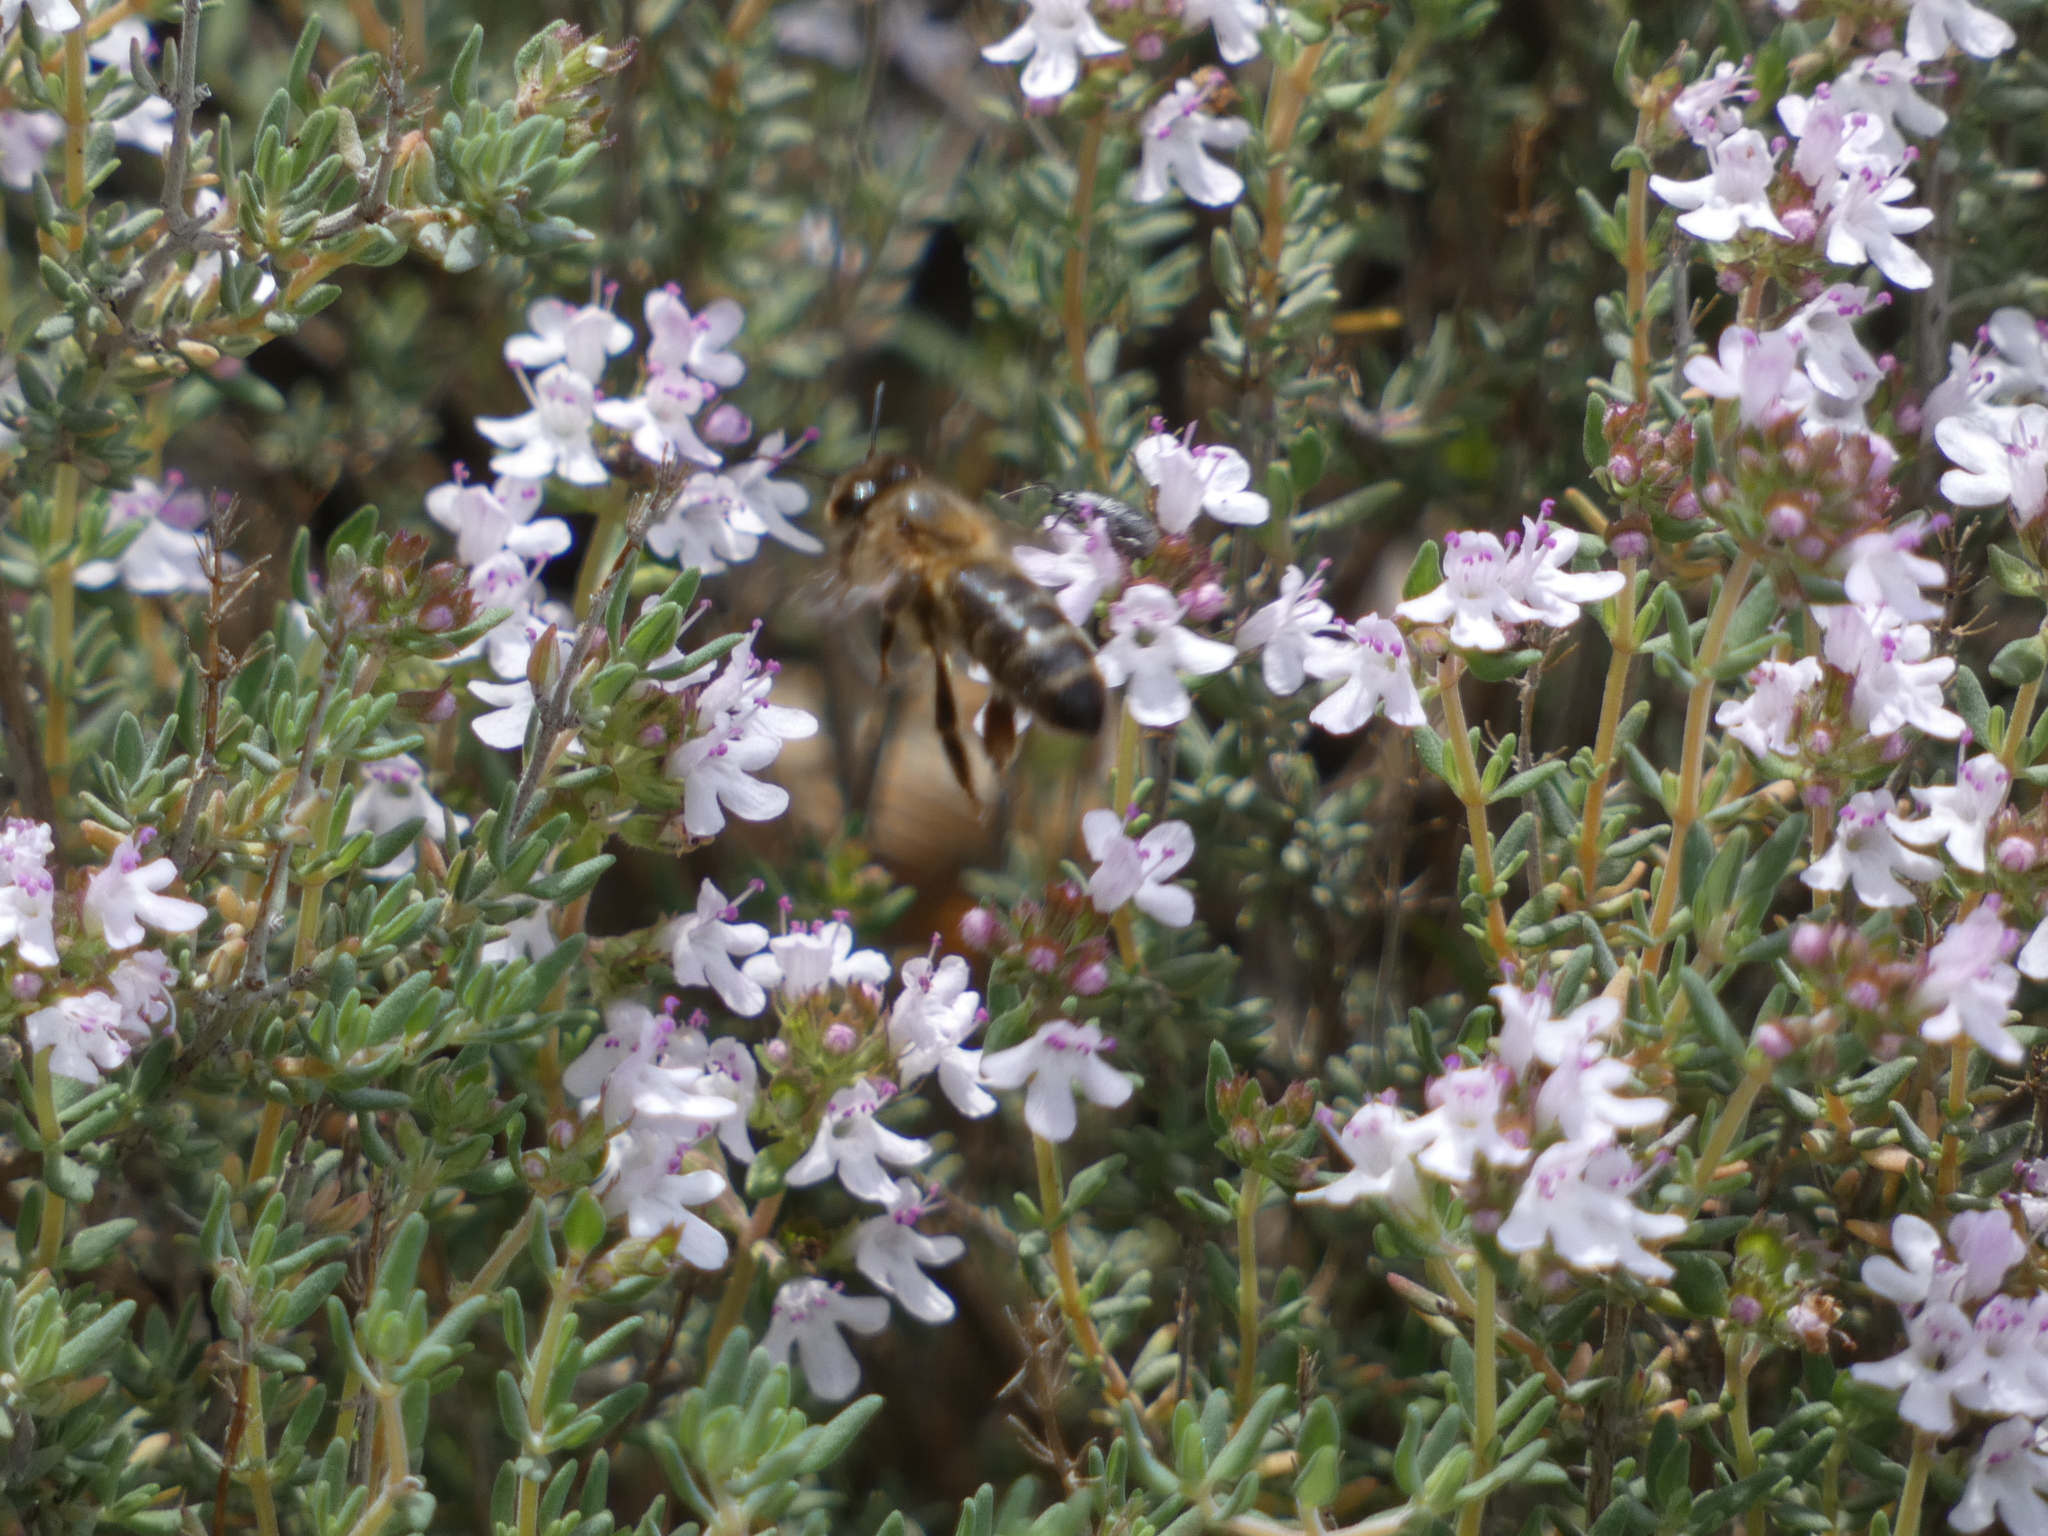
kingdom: Animalia
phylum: Arthropoda
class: Insecta
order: Hymenoptera
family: Apidae
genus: Apis
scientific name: Apis mellifera
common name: Honey bee
